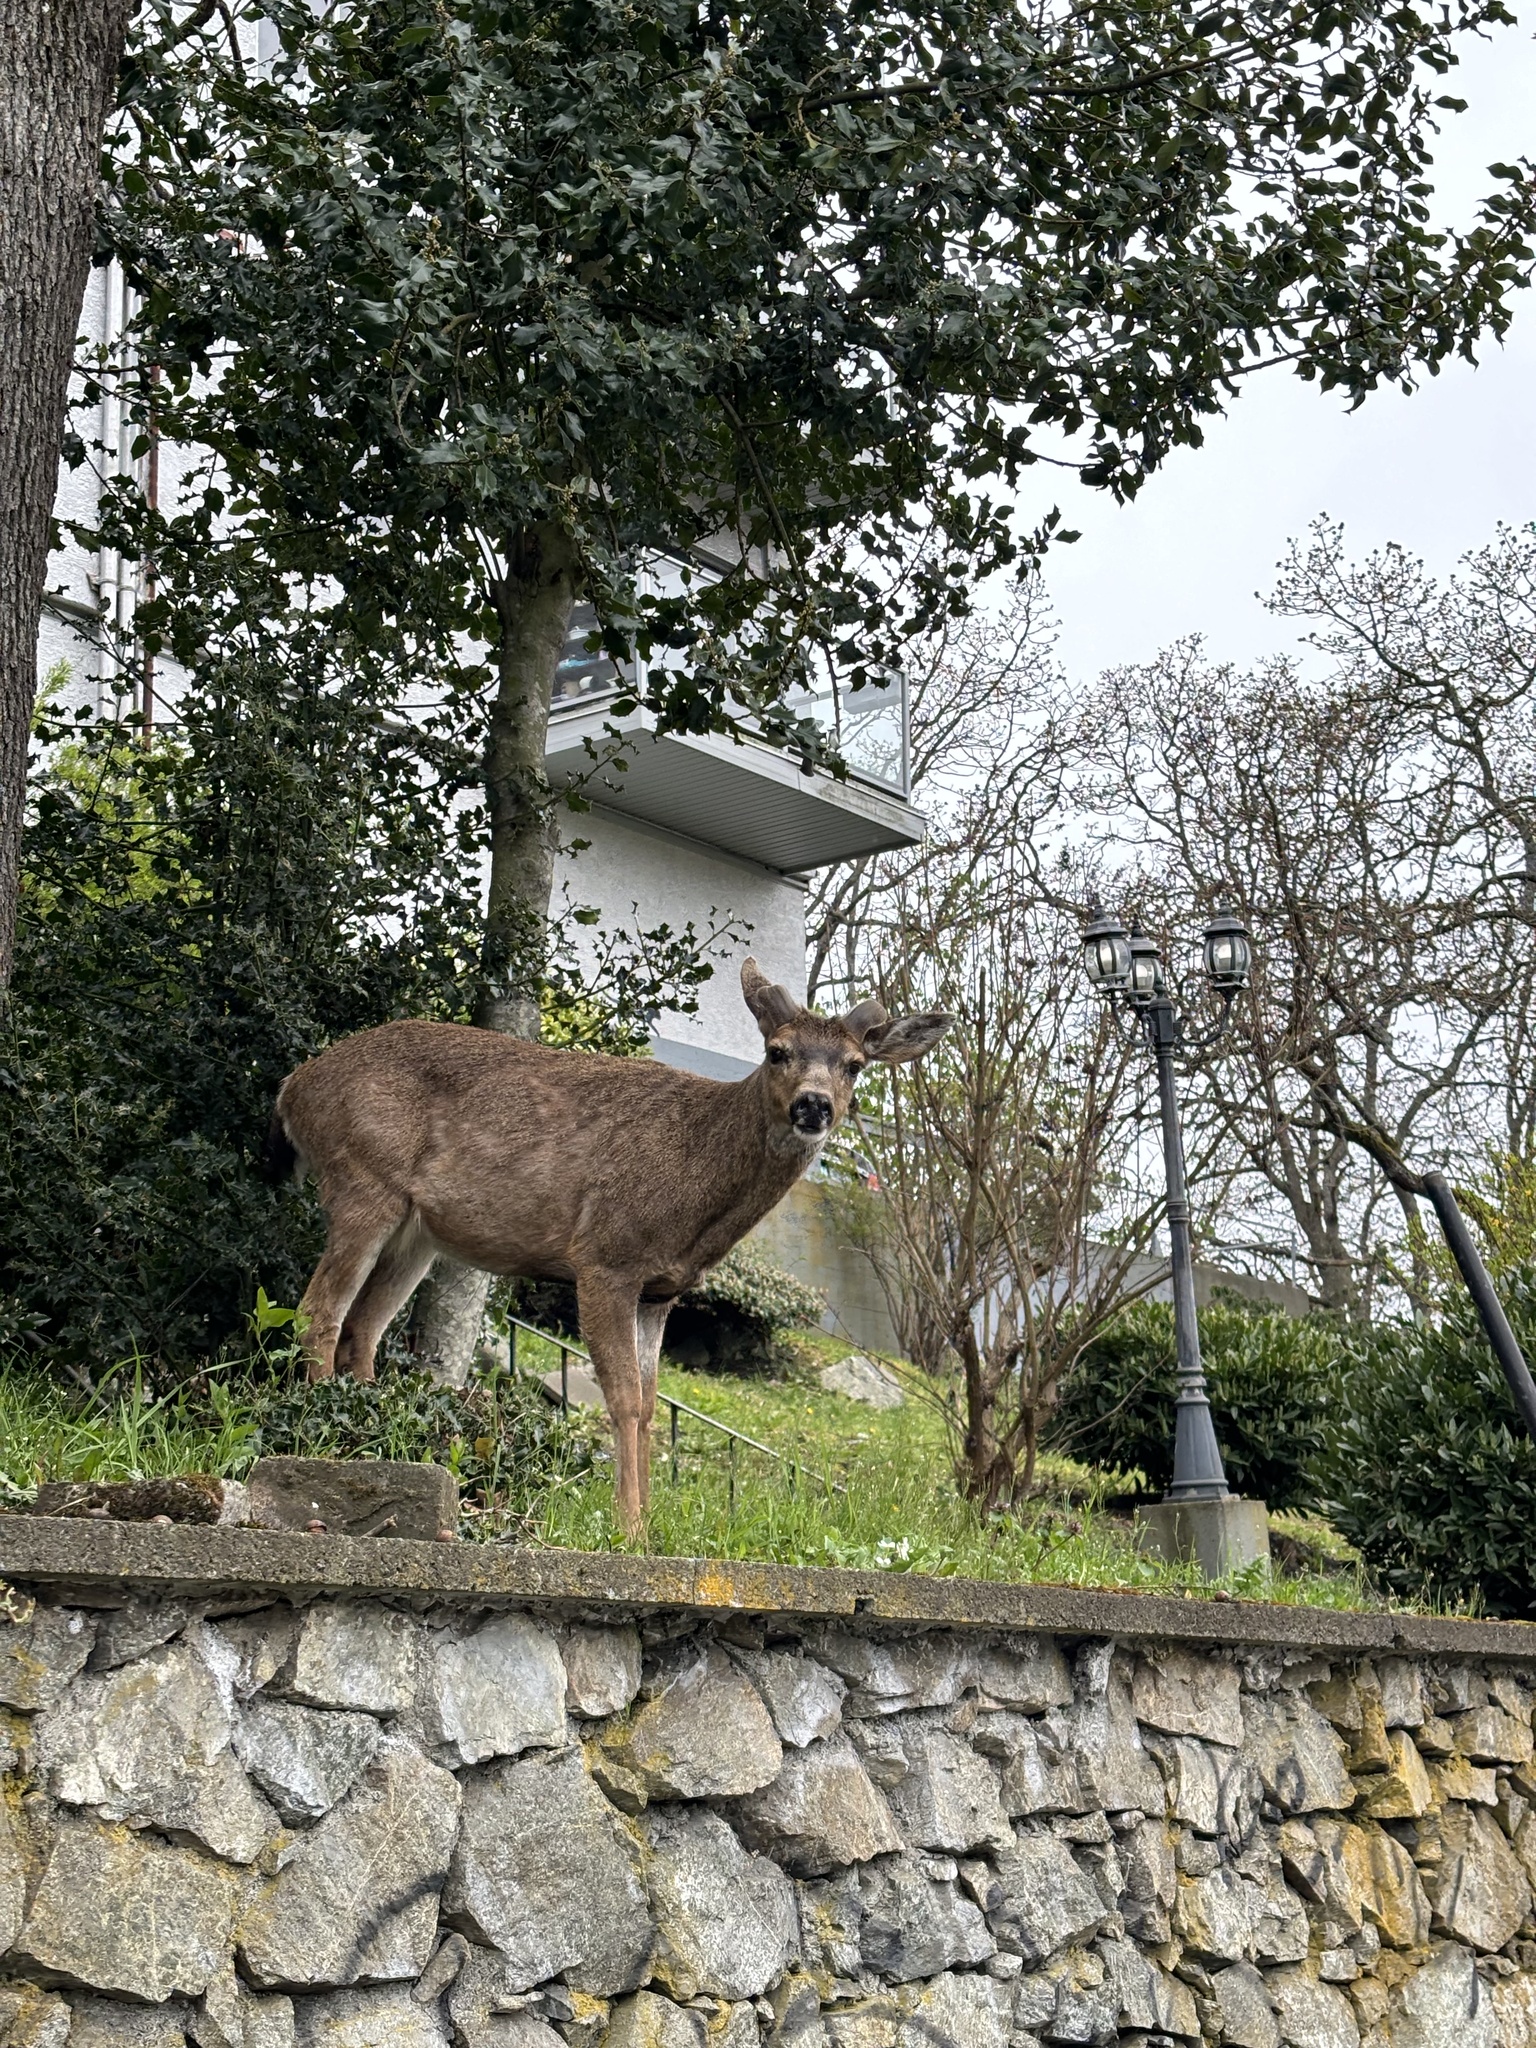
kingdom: Animalia
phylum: Chordata
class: Mammalia
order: Artiodactyla
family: Cervidae
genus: Odocoileus
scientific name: Odocoileus hemionus
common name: Mule deer
